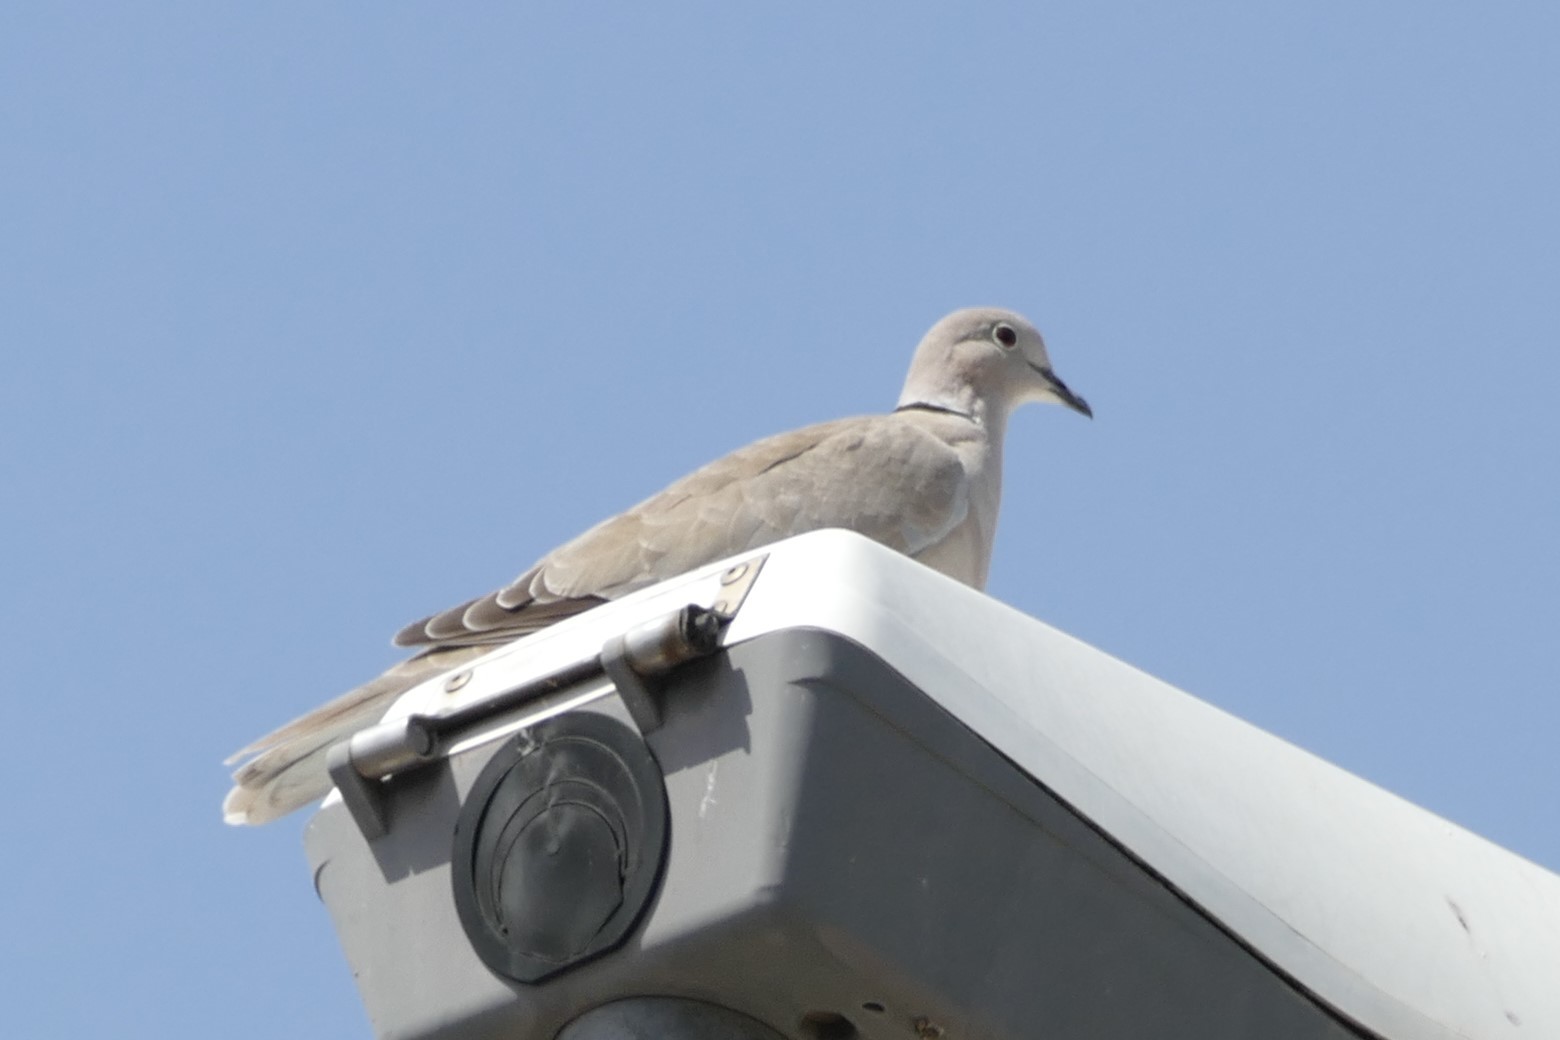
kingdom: Animalia
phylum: Chordata
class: Aves
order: Columbiformes
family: Columbidae
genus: Streptopelia
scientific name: Streptopelia decaocto
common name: Eurasian collared dove
